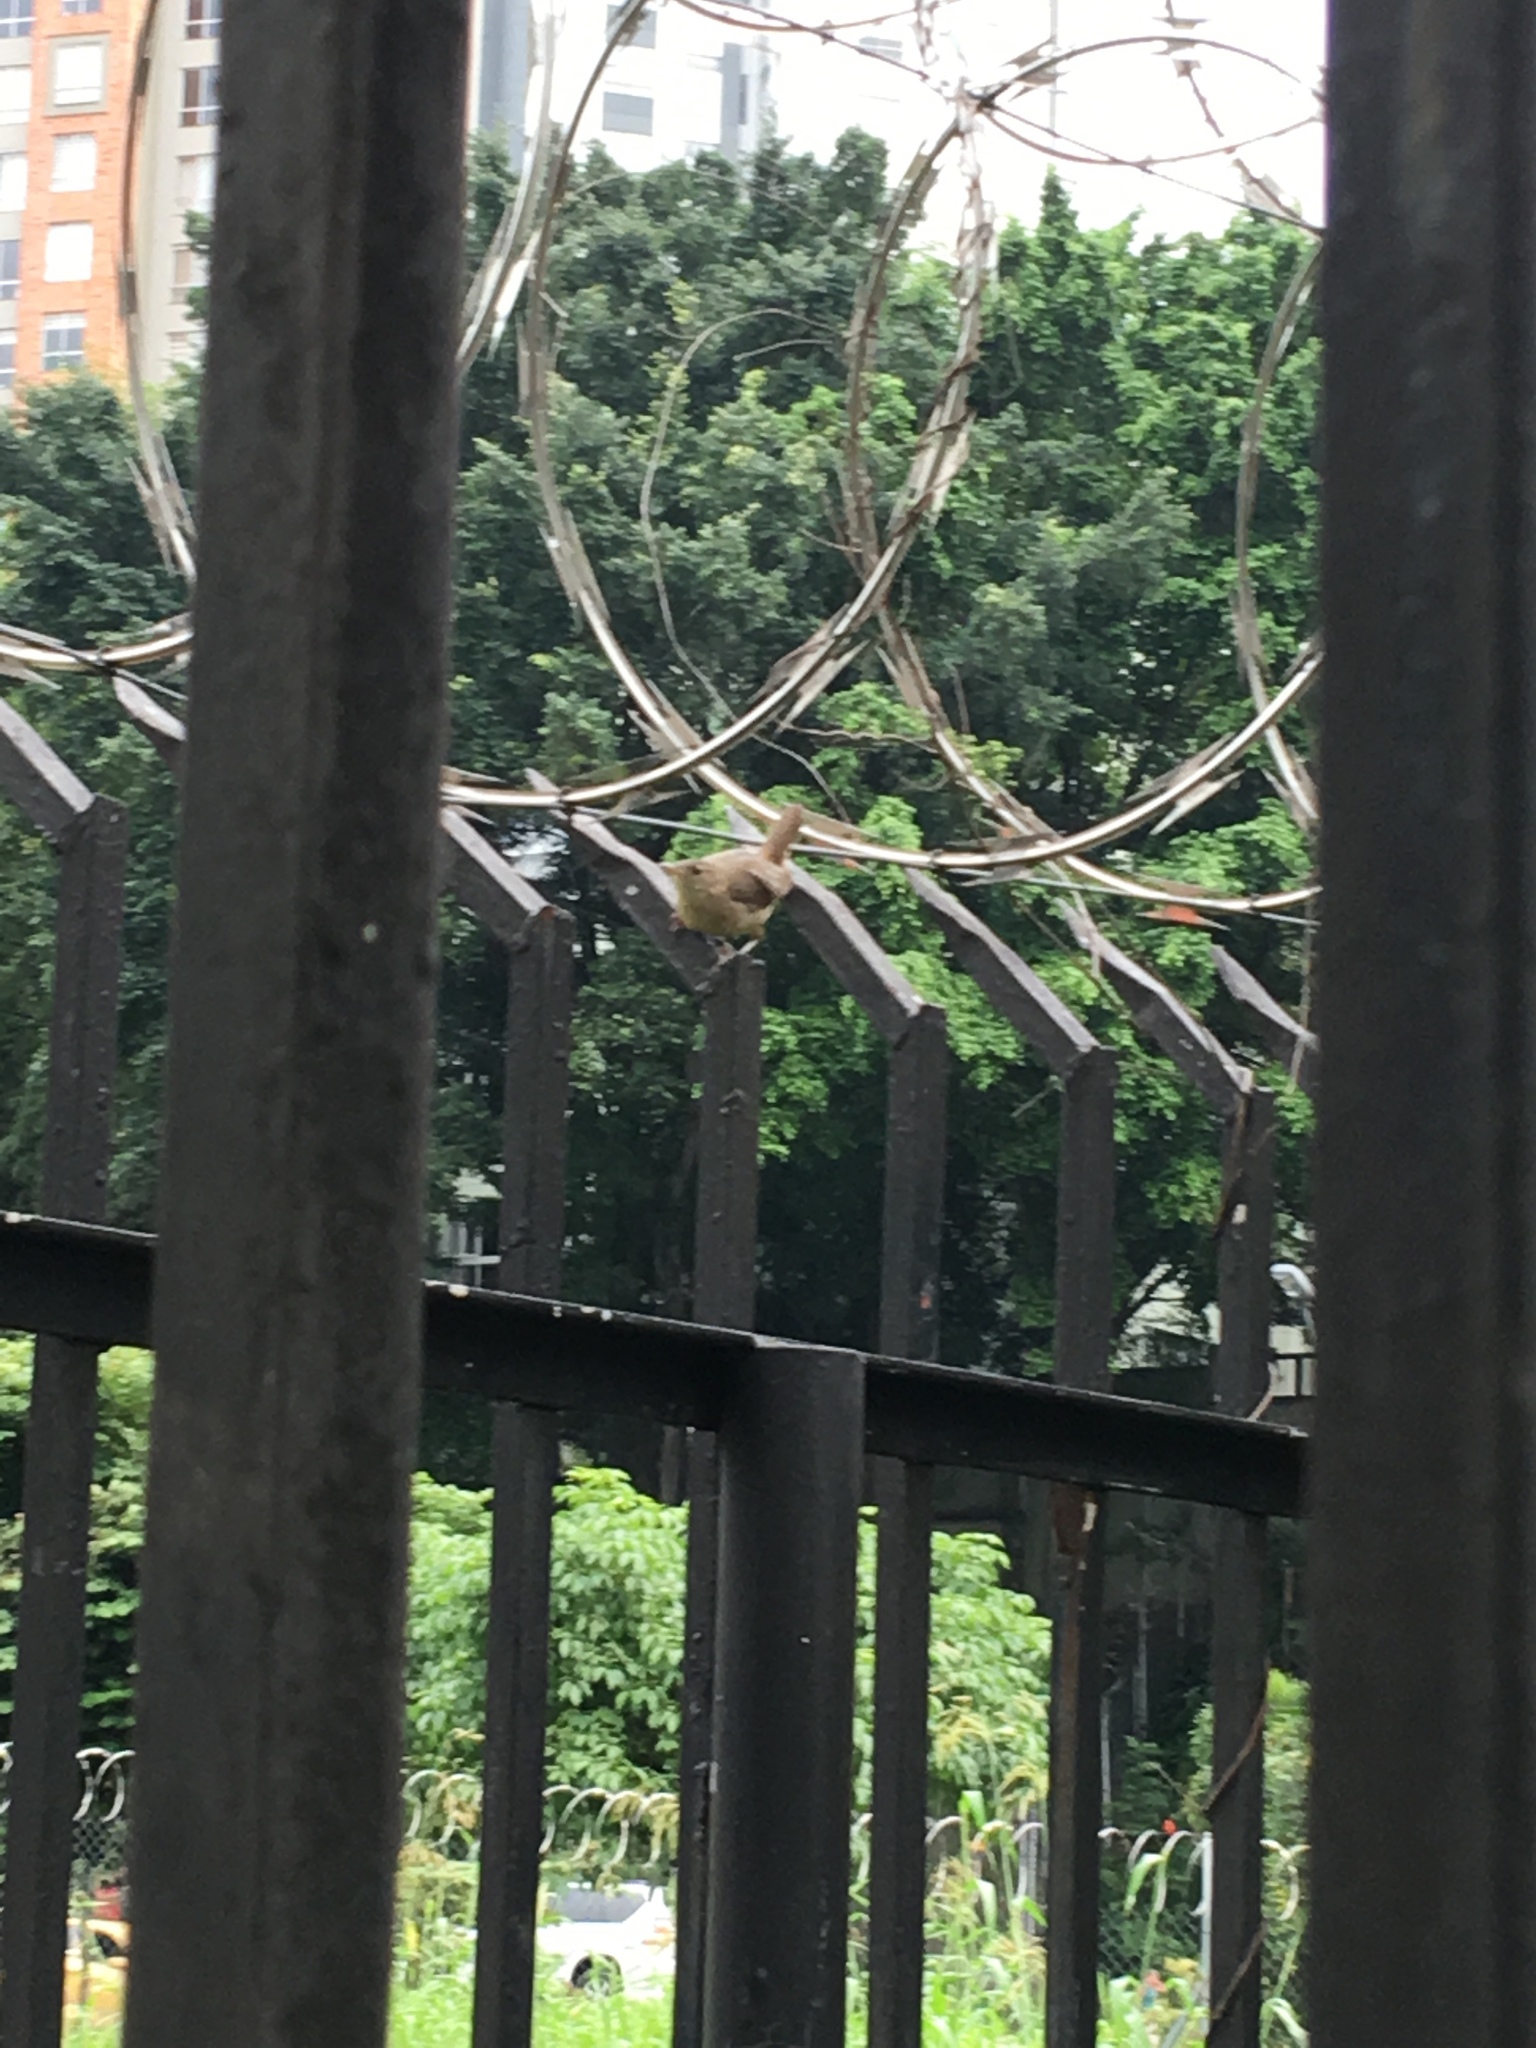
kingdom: Animalia
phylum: Chordata
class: Aves
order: Passeriformes
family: Troglodytidae
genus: Troglodytes
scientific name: Troglodytes aedon
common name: House wren
